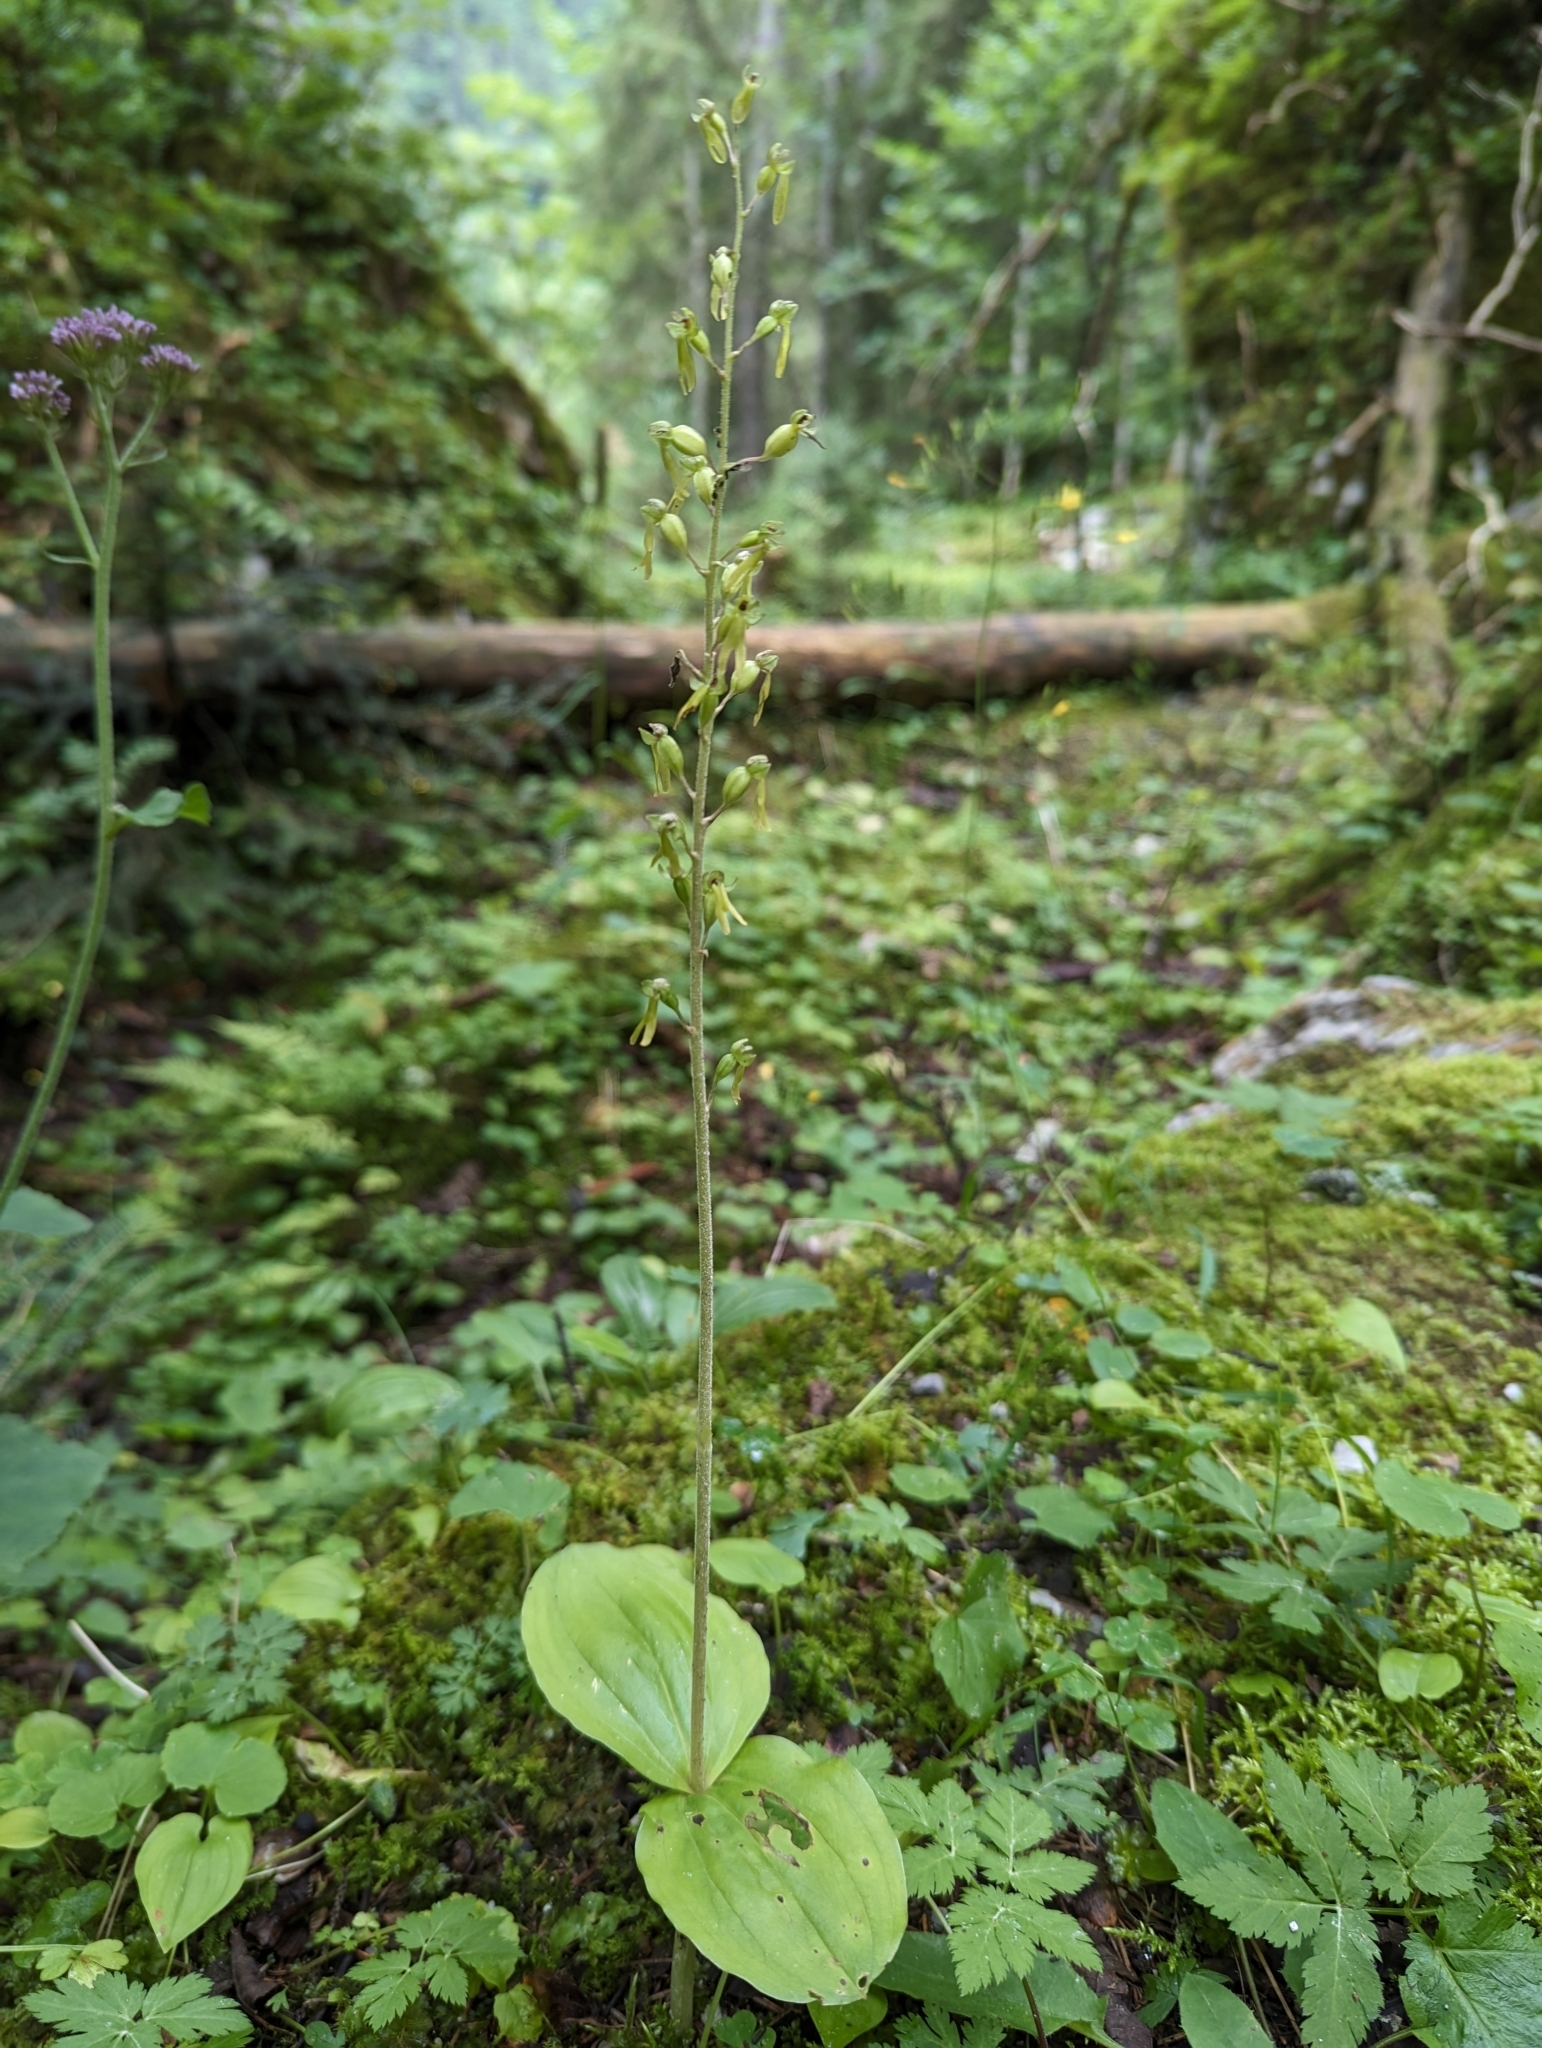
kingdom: Plantae
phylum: Tracheophyta
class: Liliopsida
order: Asparagales
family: Orchidaceae
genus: Neottia
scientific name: Neottia ovata
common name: Common twayblade
